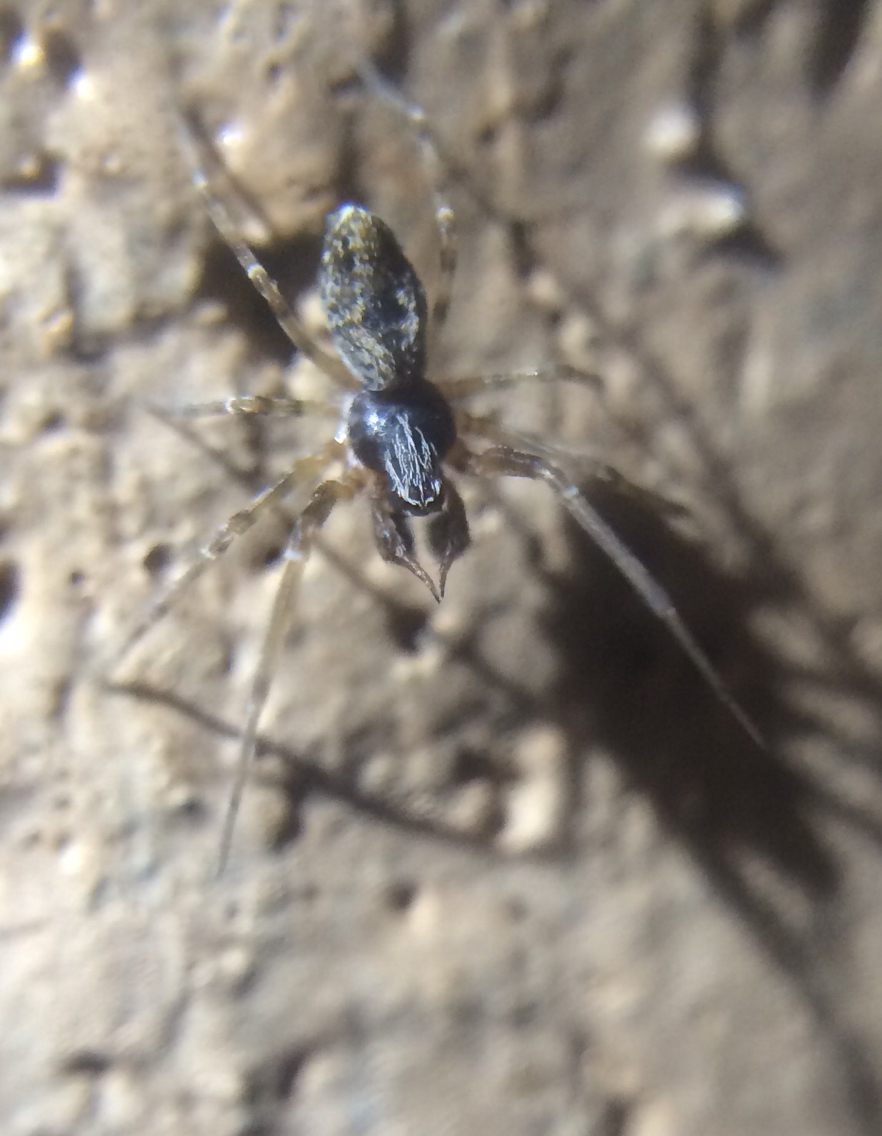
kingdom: Animalia
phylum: Arthropoda
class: Arachnida
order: Araneae
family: Dictynidae
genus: Dictyna
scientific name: Dictyna calcarata
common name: Mesh weaver
